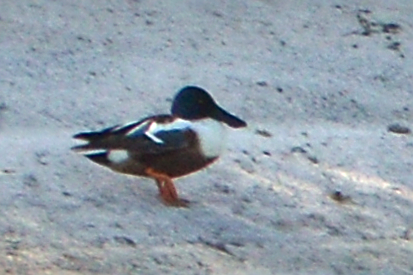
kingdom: Animalia
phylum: Chordata
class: Aves
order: Anseriformes
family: Anatidae
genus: Spatula
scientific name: Spatula clypeata
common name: Northern shoveler
